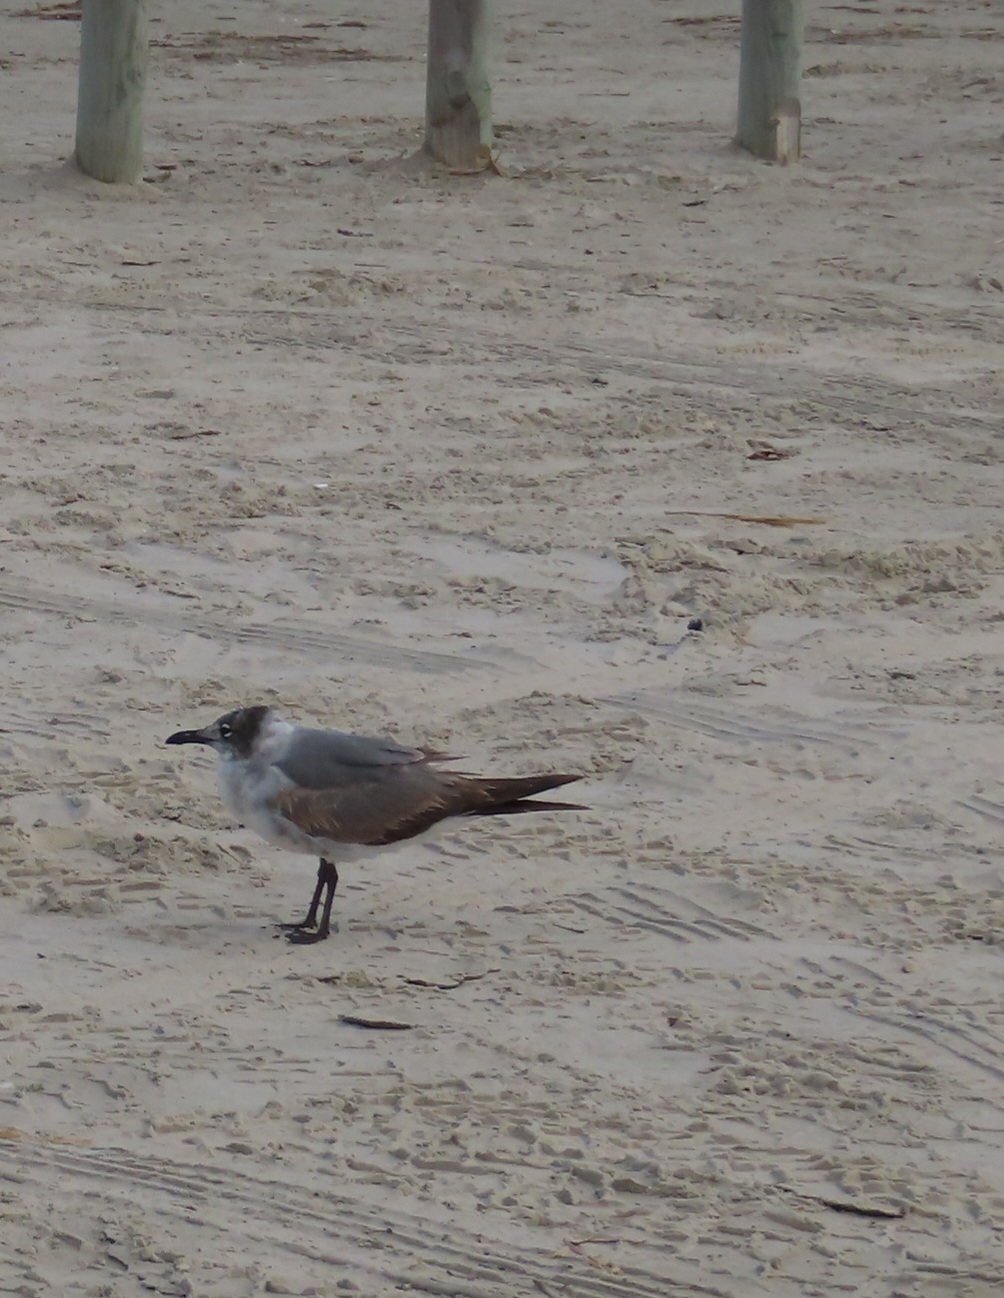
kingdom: Animalia
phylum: Chordata
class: Aves
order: Charadriiformes
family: Laridae
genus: Leucophaeus
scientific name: Leucophaeus atricilla
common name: Laughing gull
